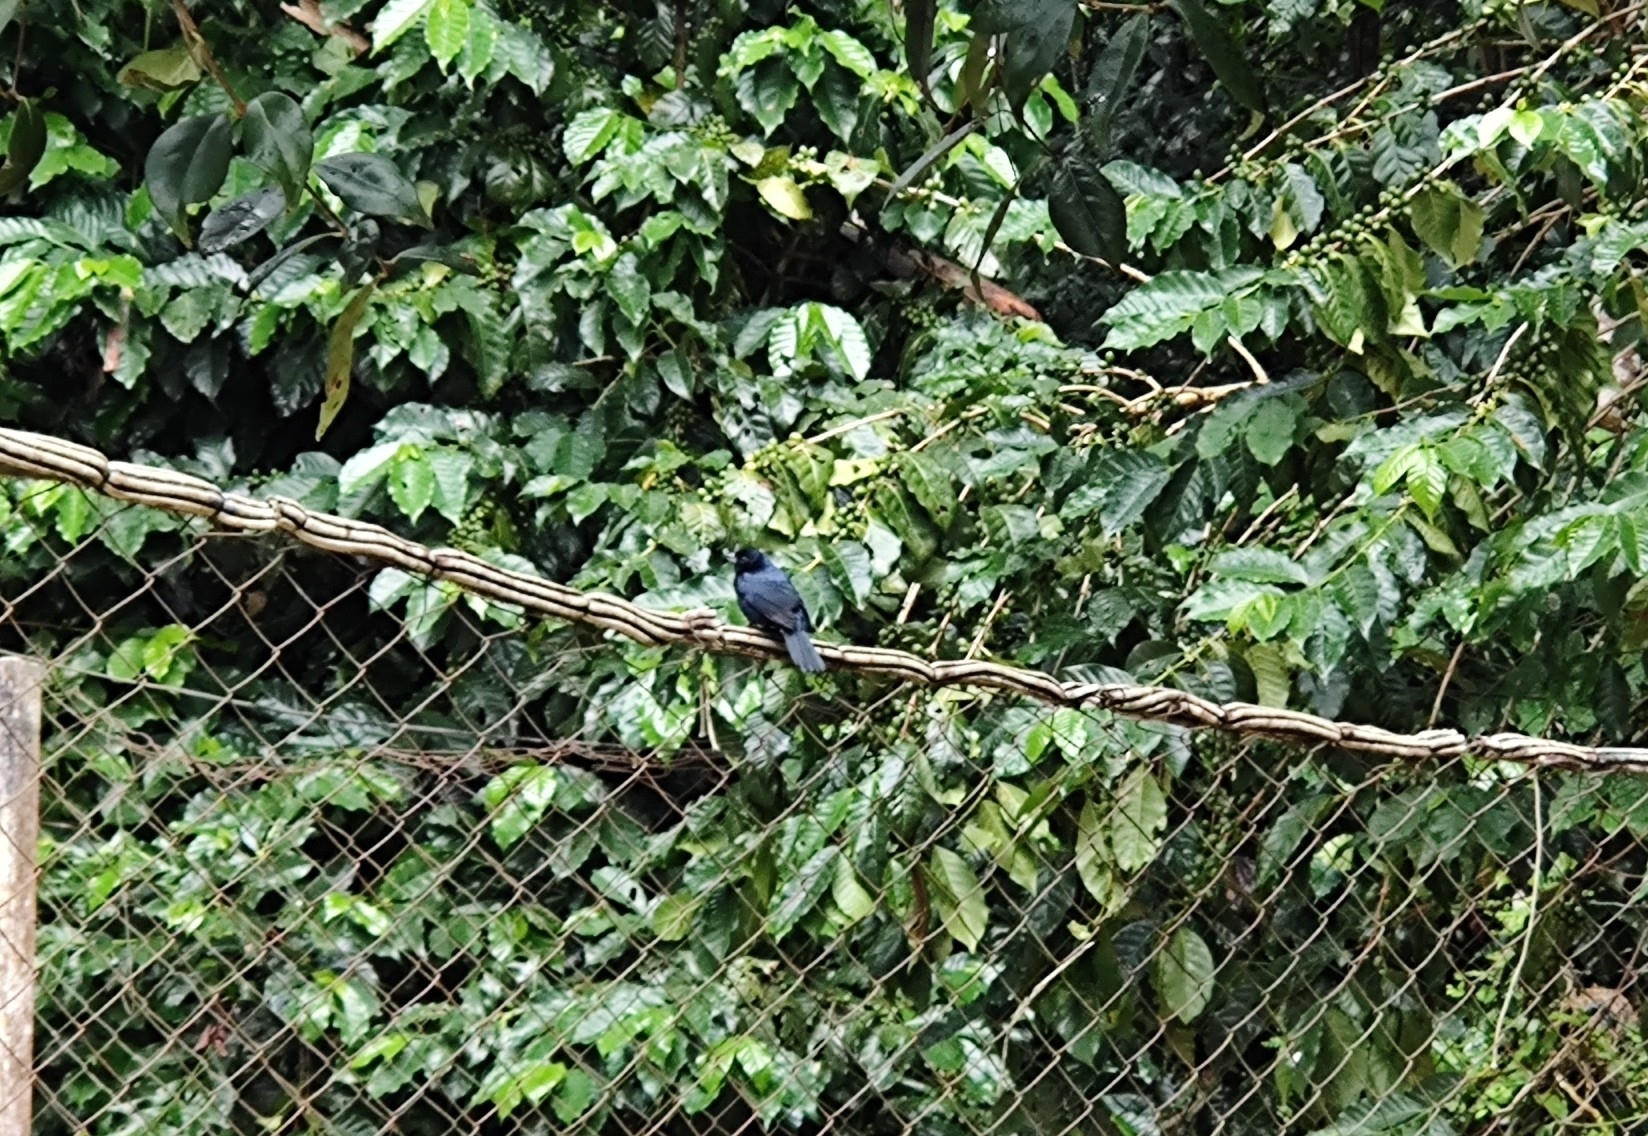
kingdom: Animalia
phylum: Chordata
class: Aves
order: Passeriformes
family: Thraupidae
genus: Tachyphonus
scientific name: Tachyphonus coronatus
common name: Ruby-crowned tanager
